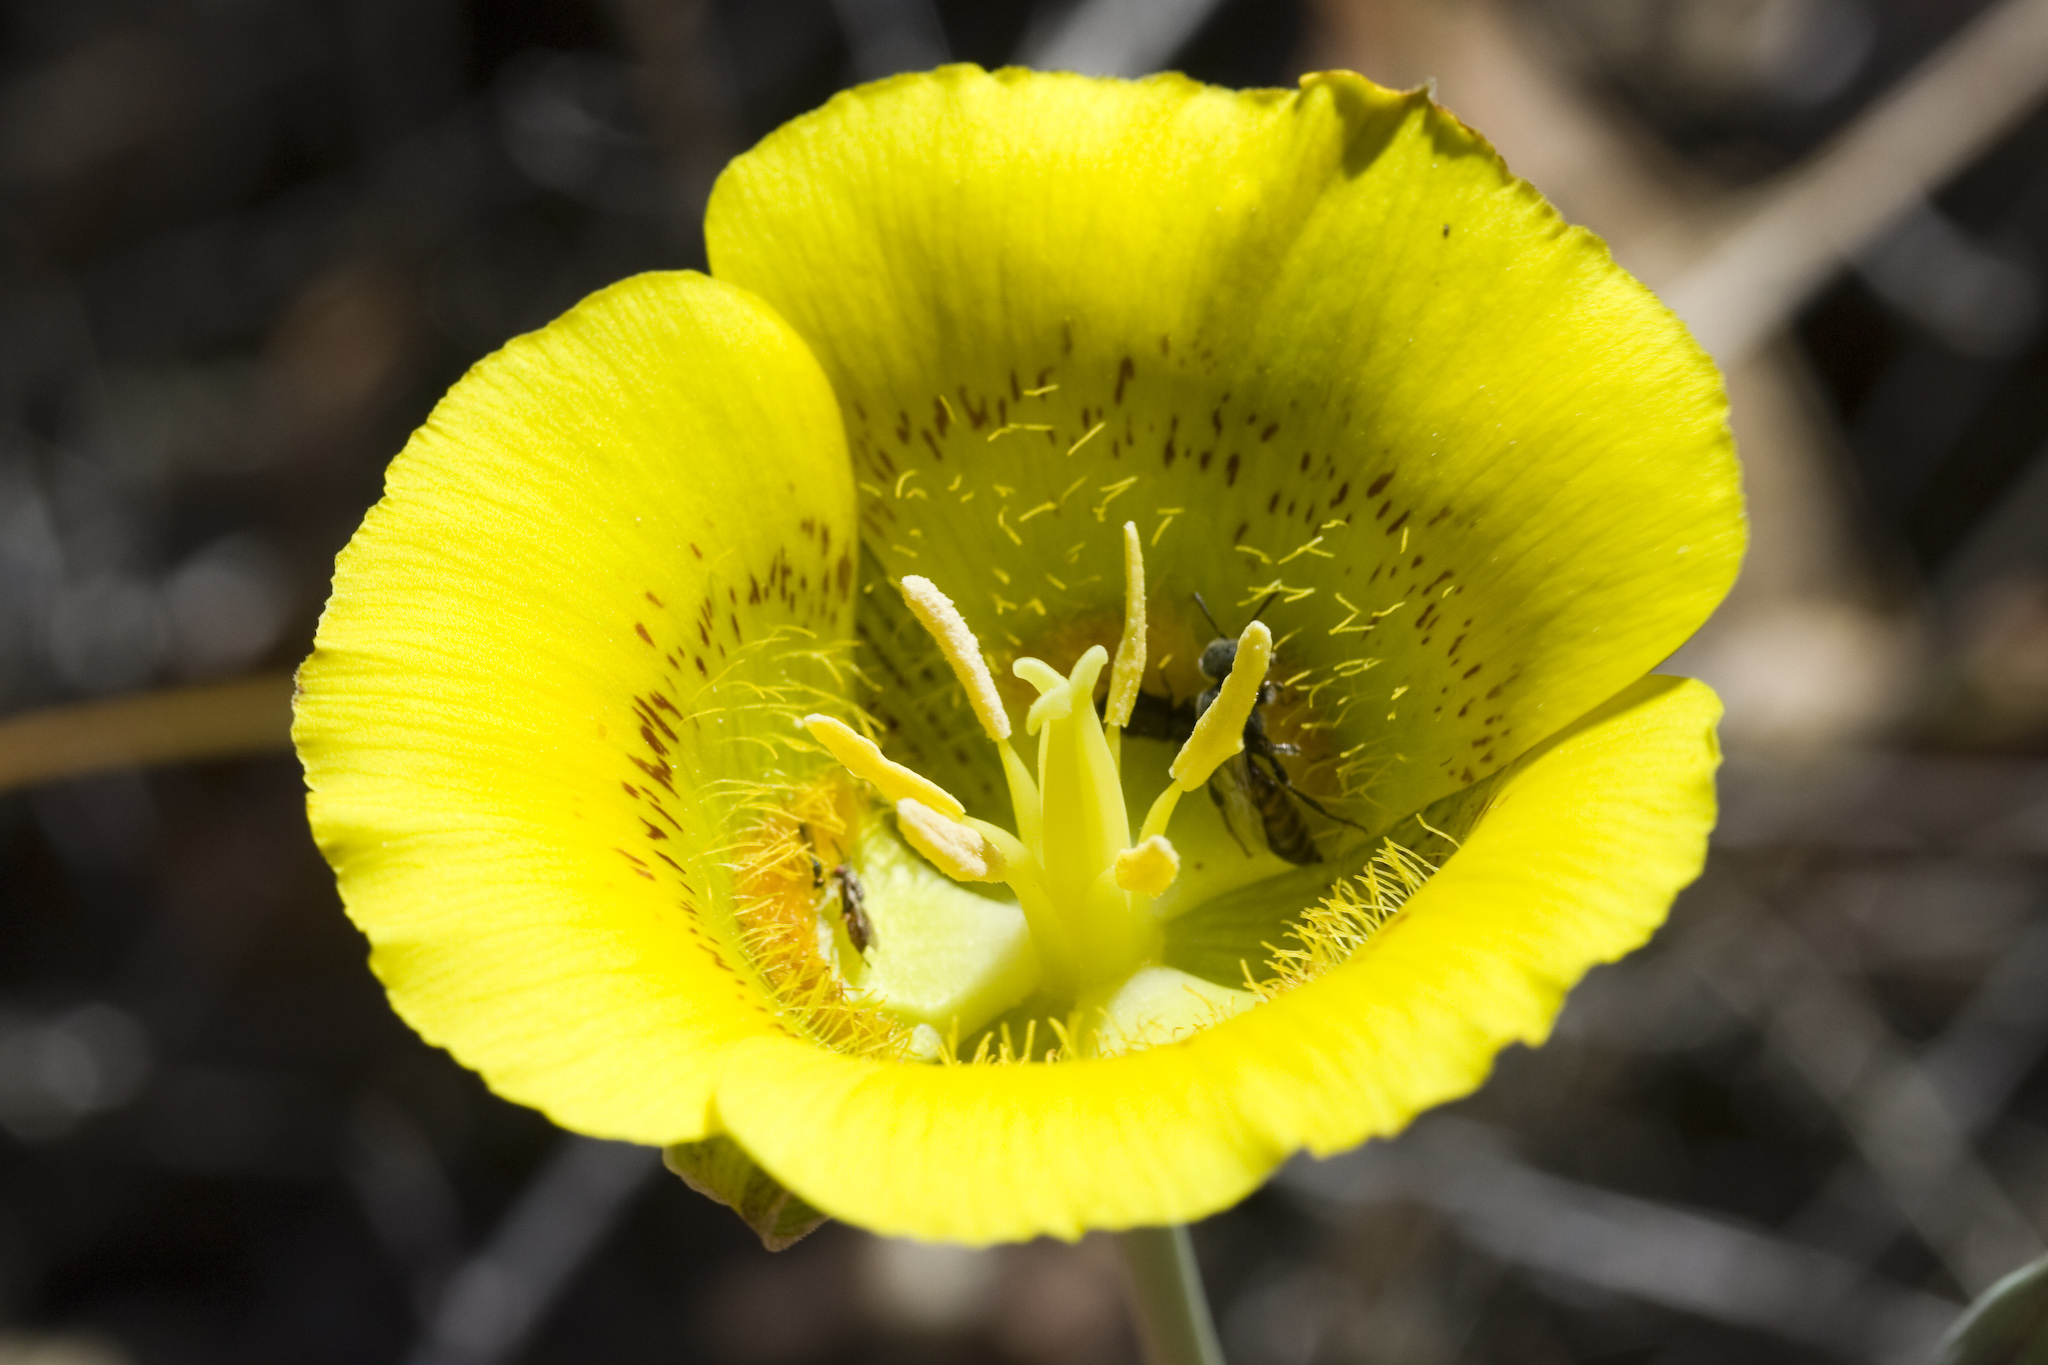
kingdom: Plantae
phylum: Tracheophyta
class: Liliopsida
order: Liliales
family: Liliaceae
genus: Calochortus
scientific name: Calochortus luteus
